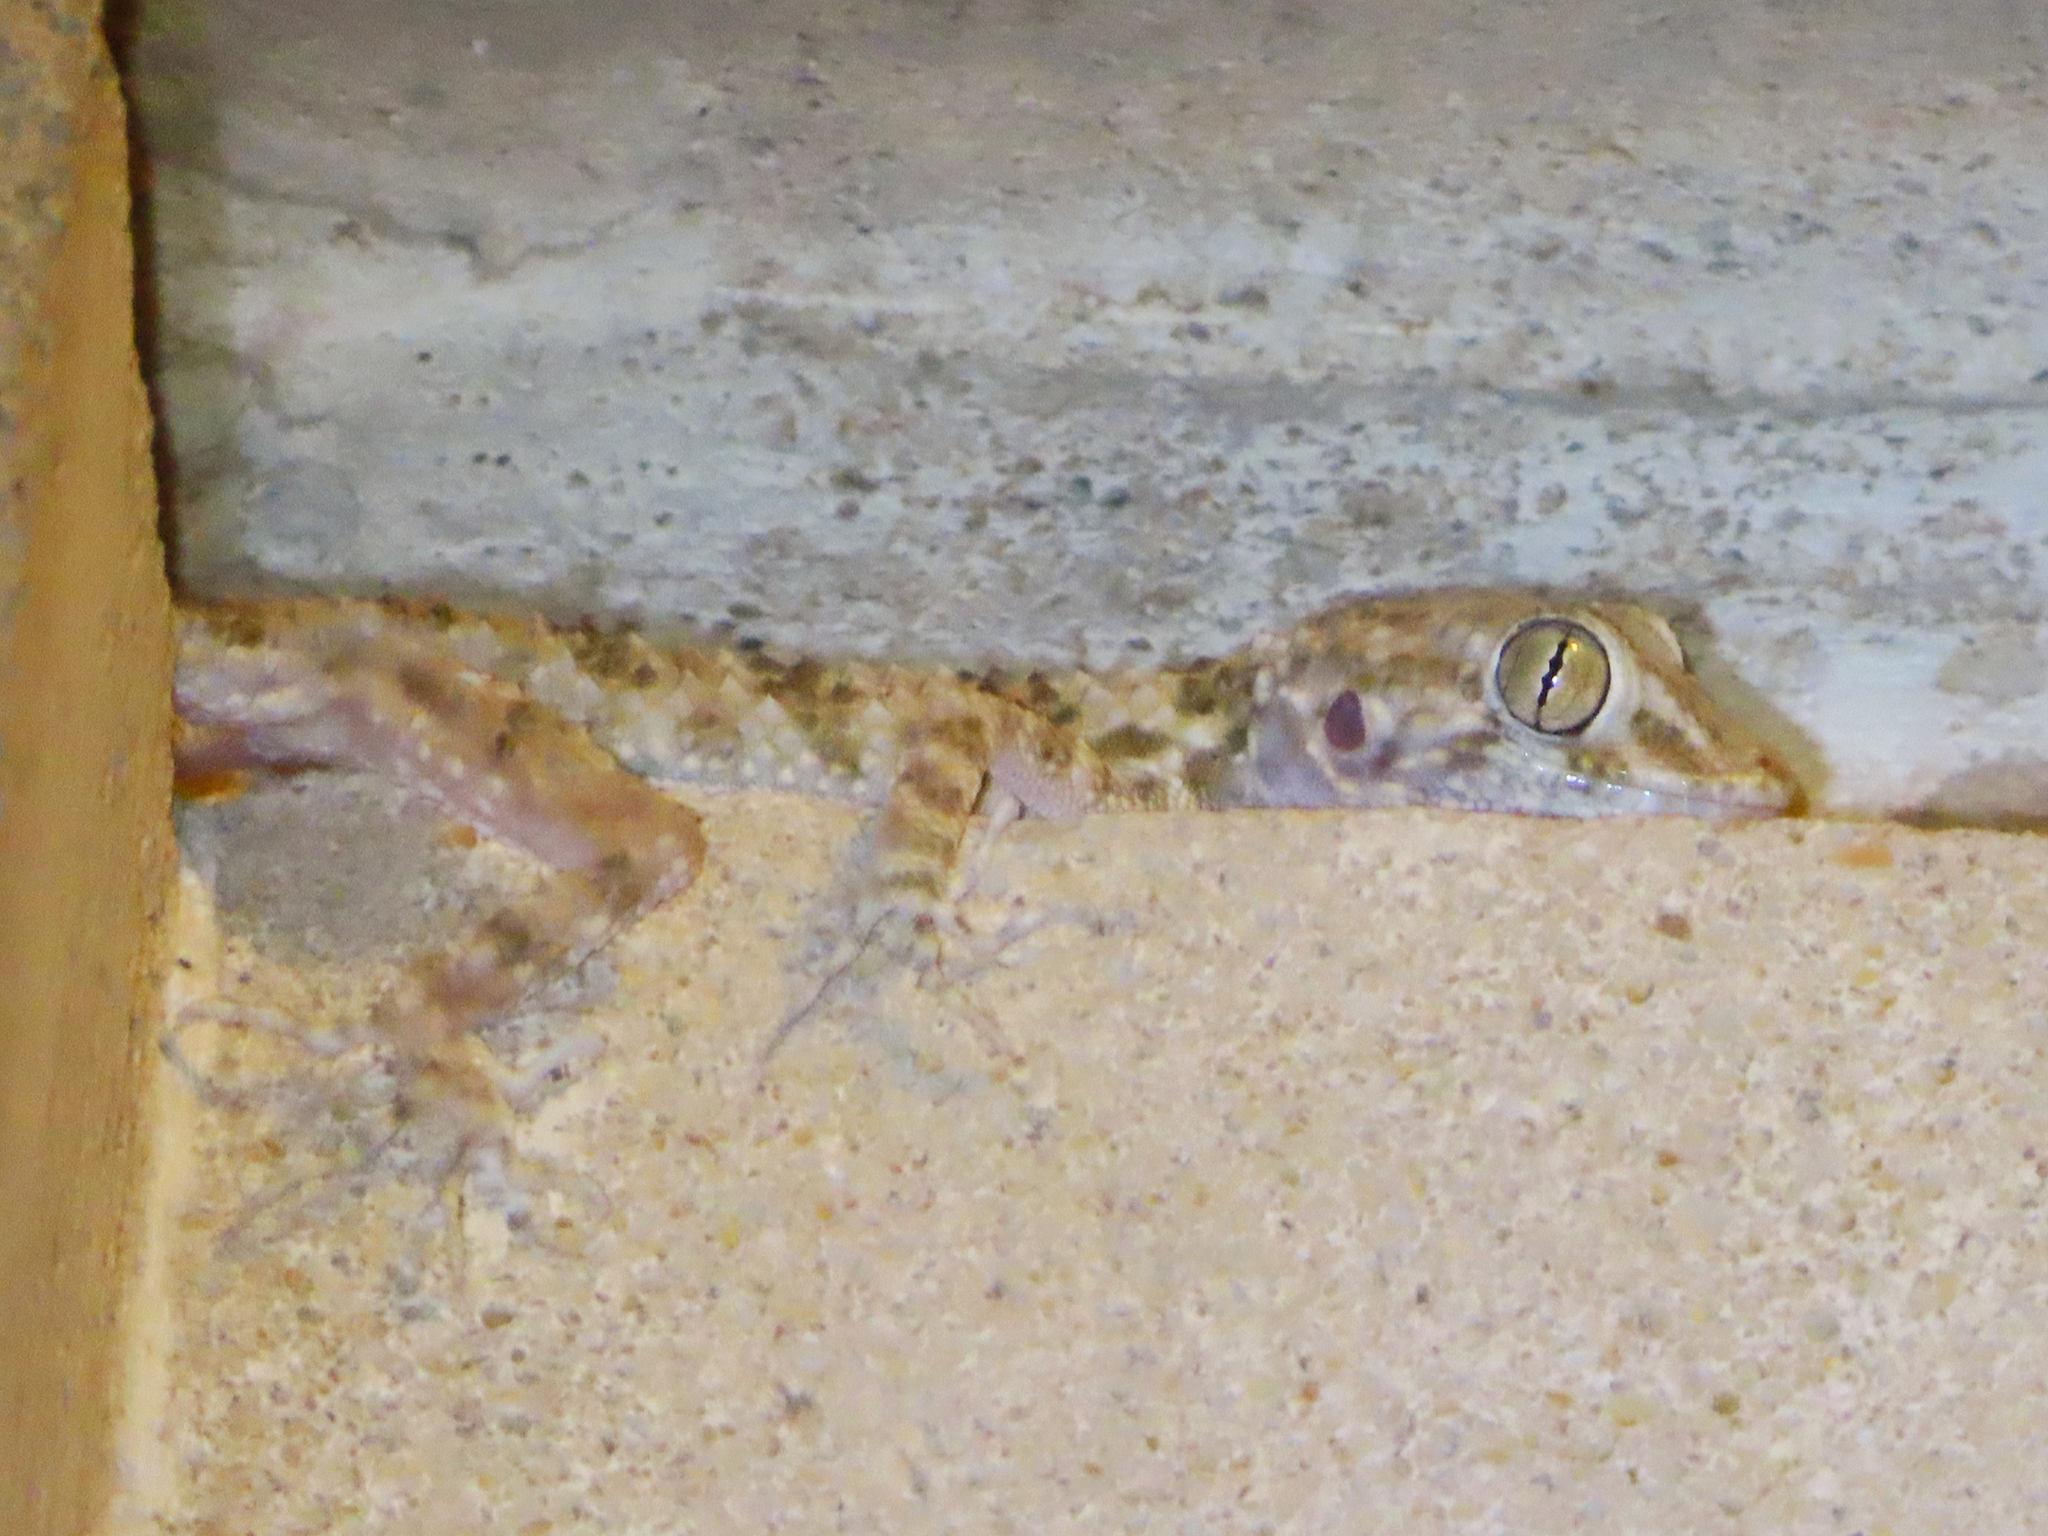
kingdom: Animalia
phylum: Chordata
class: Squamata
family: Gekkonidae
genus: Tenuidactylus
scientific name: Tenuidactylus caspius
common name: Caspian bent-toed gecko
